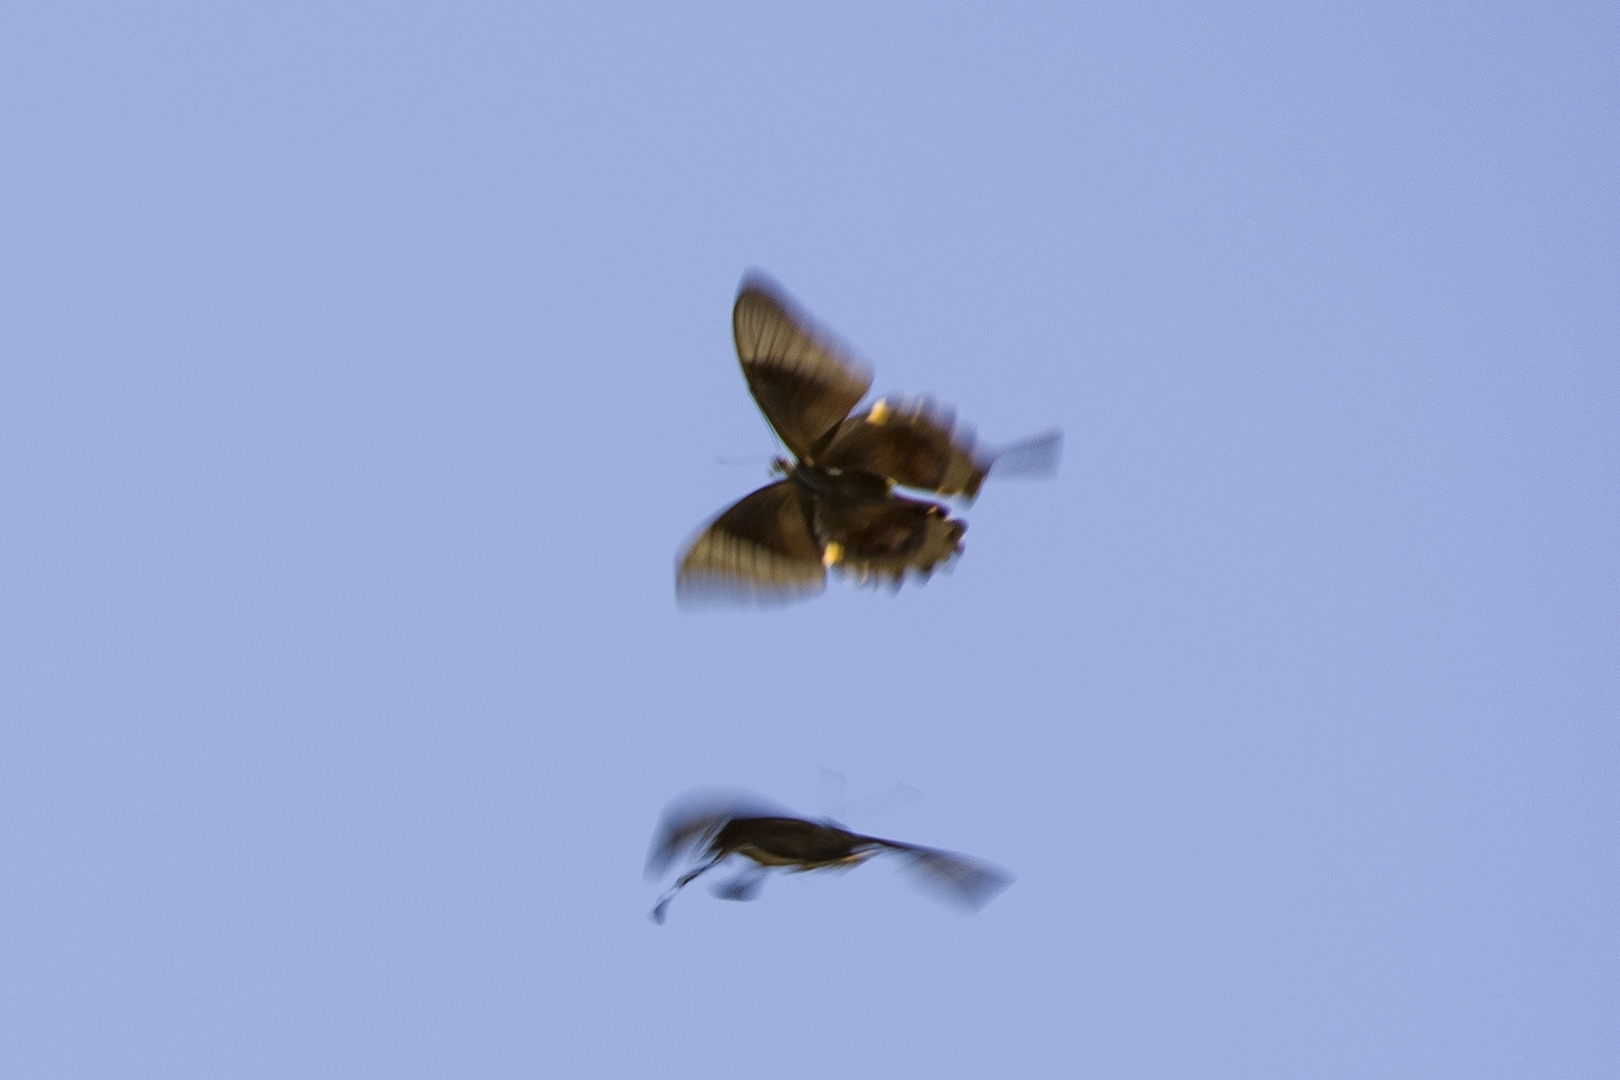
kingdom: Animalia
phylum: Arthropoda
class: Insecta
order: Lepidoptera
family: Papilionidae
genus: Papilio
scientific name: Papilio buddha
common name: Malabar banded peacock
